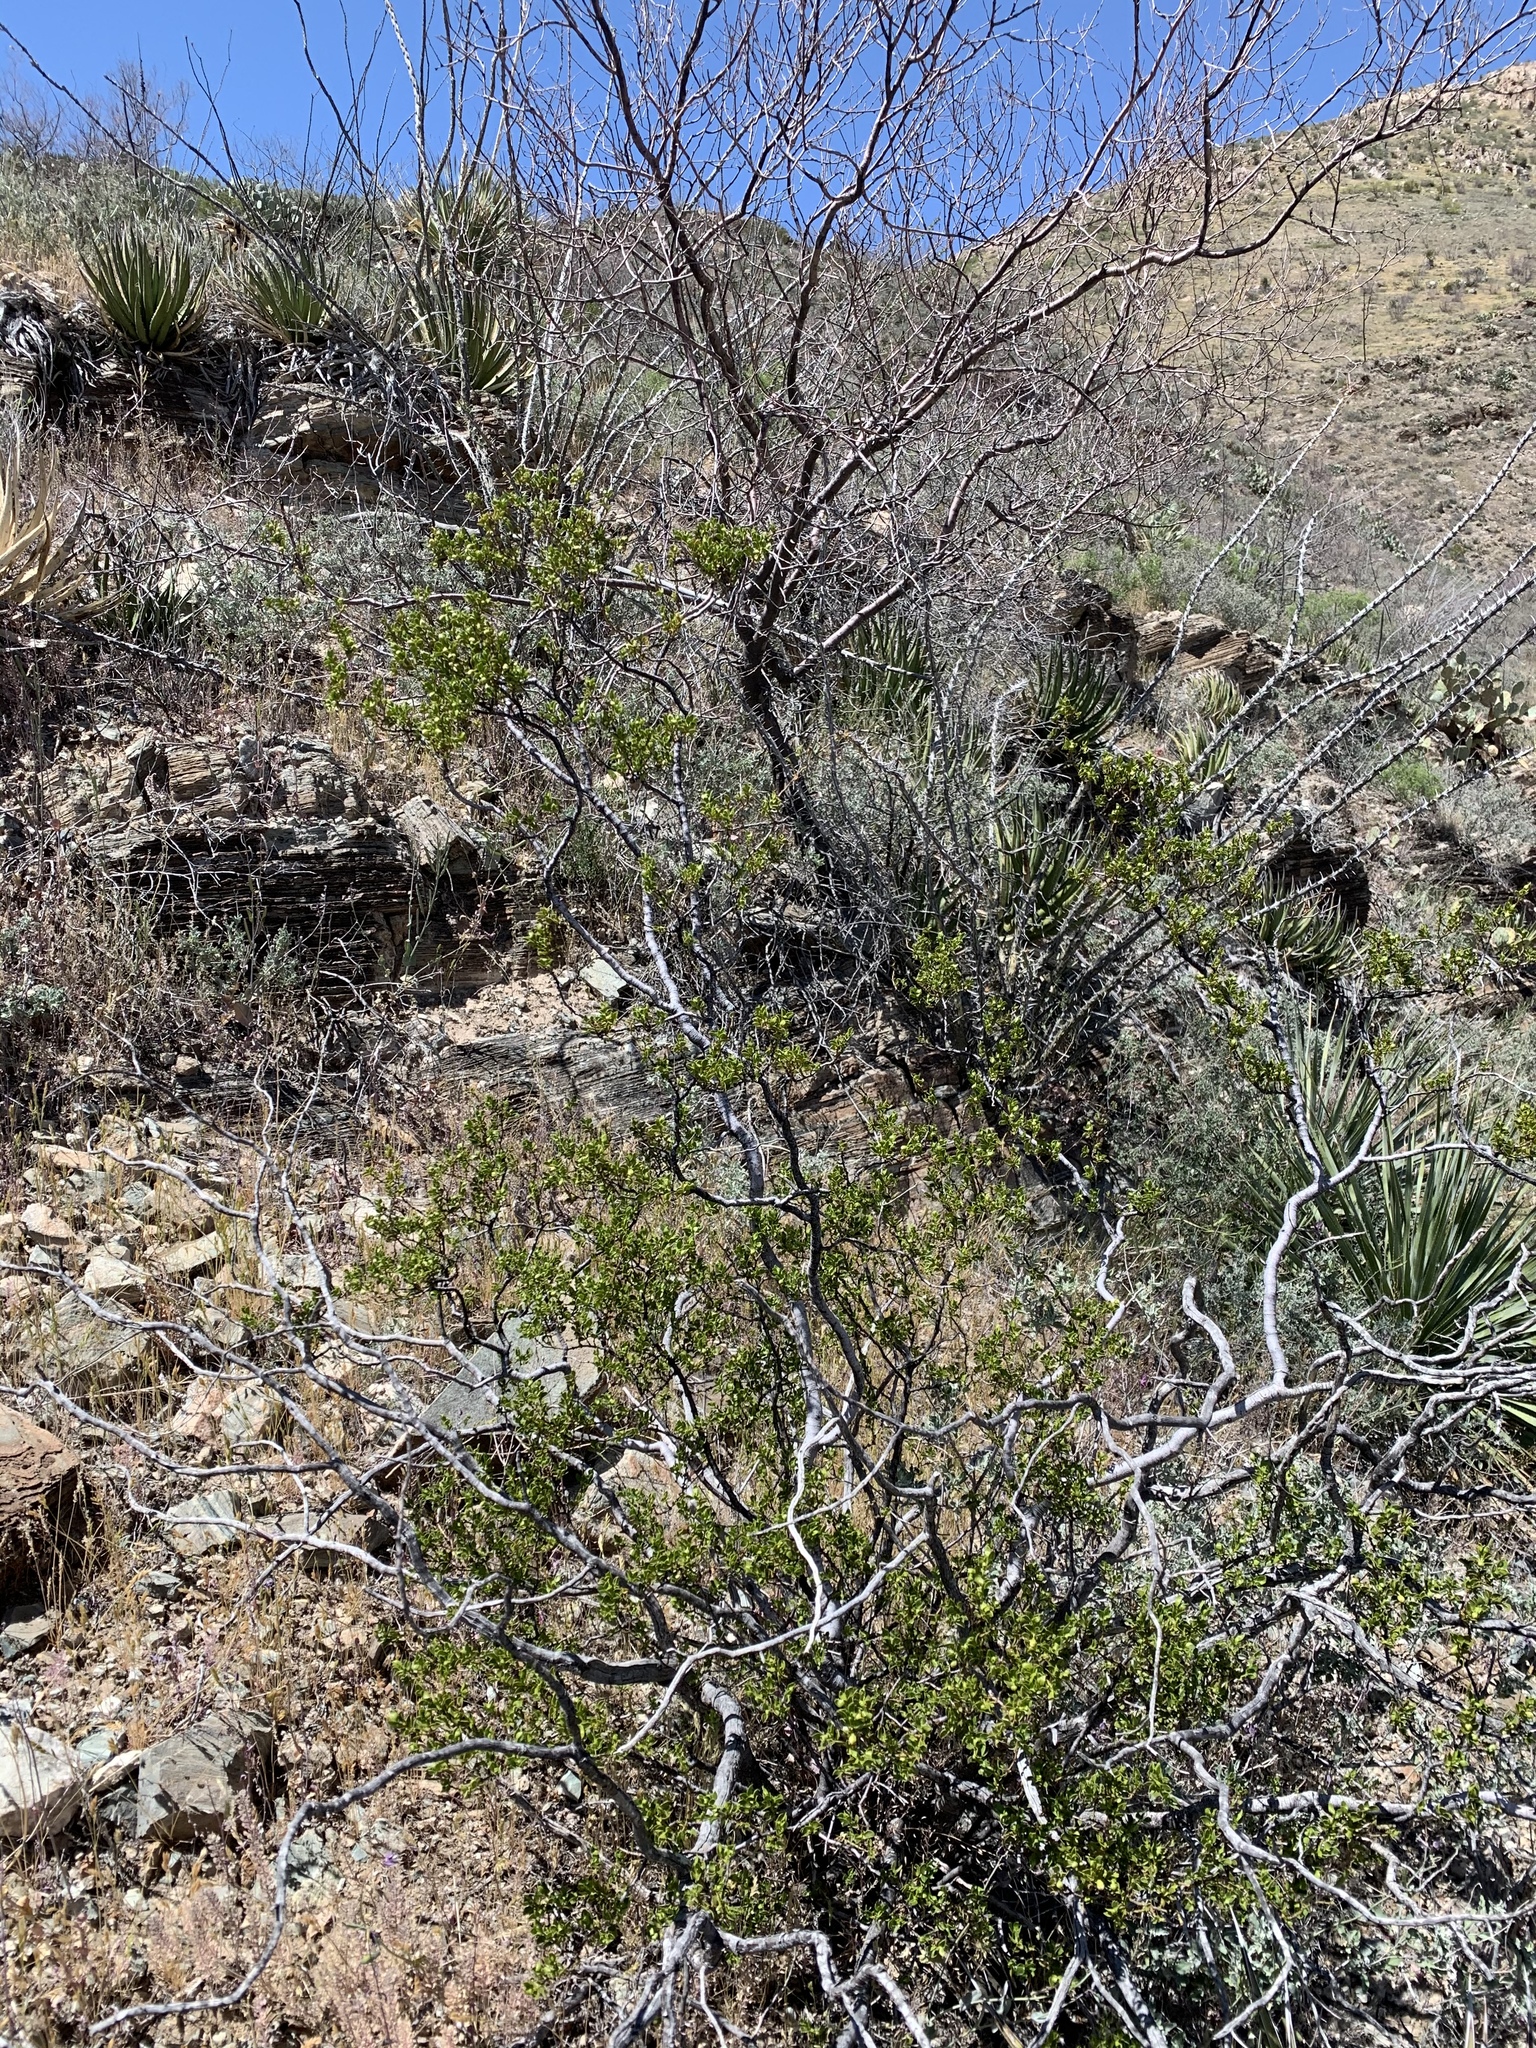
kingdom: Plantae
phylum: Tracheophyta
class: Magnoliopsida
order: Zygophyllales
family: Zygophyllaceae
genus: Larrea
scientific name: Larrea tridentata
